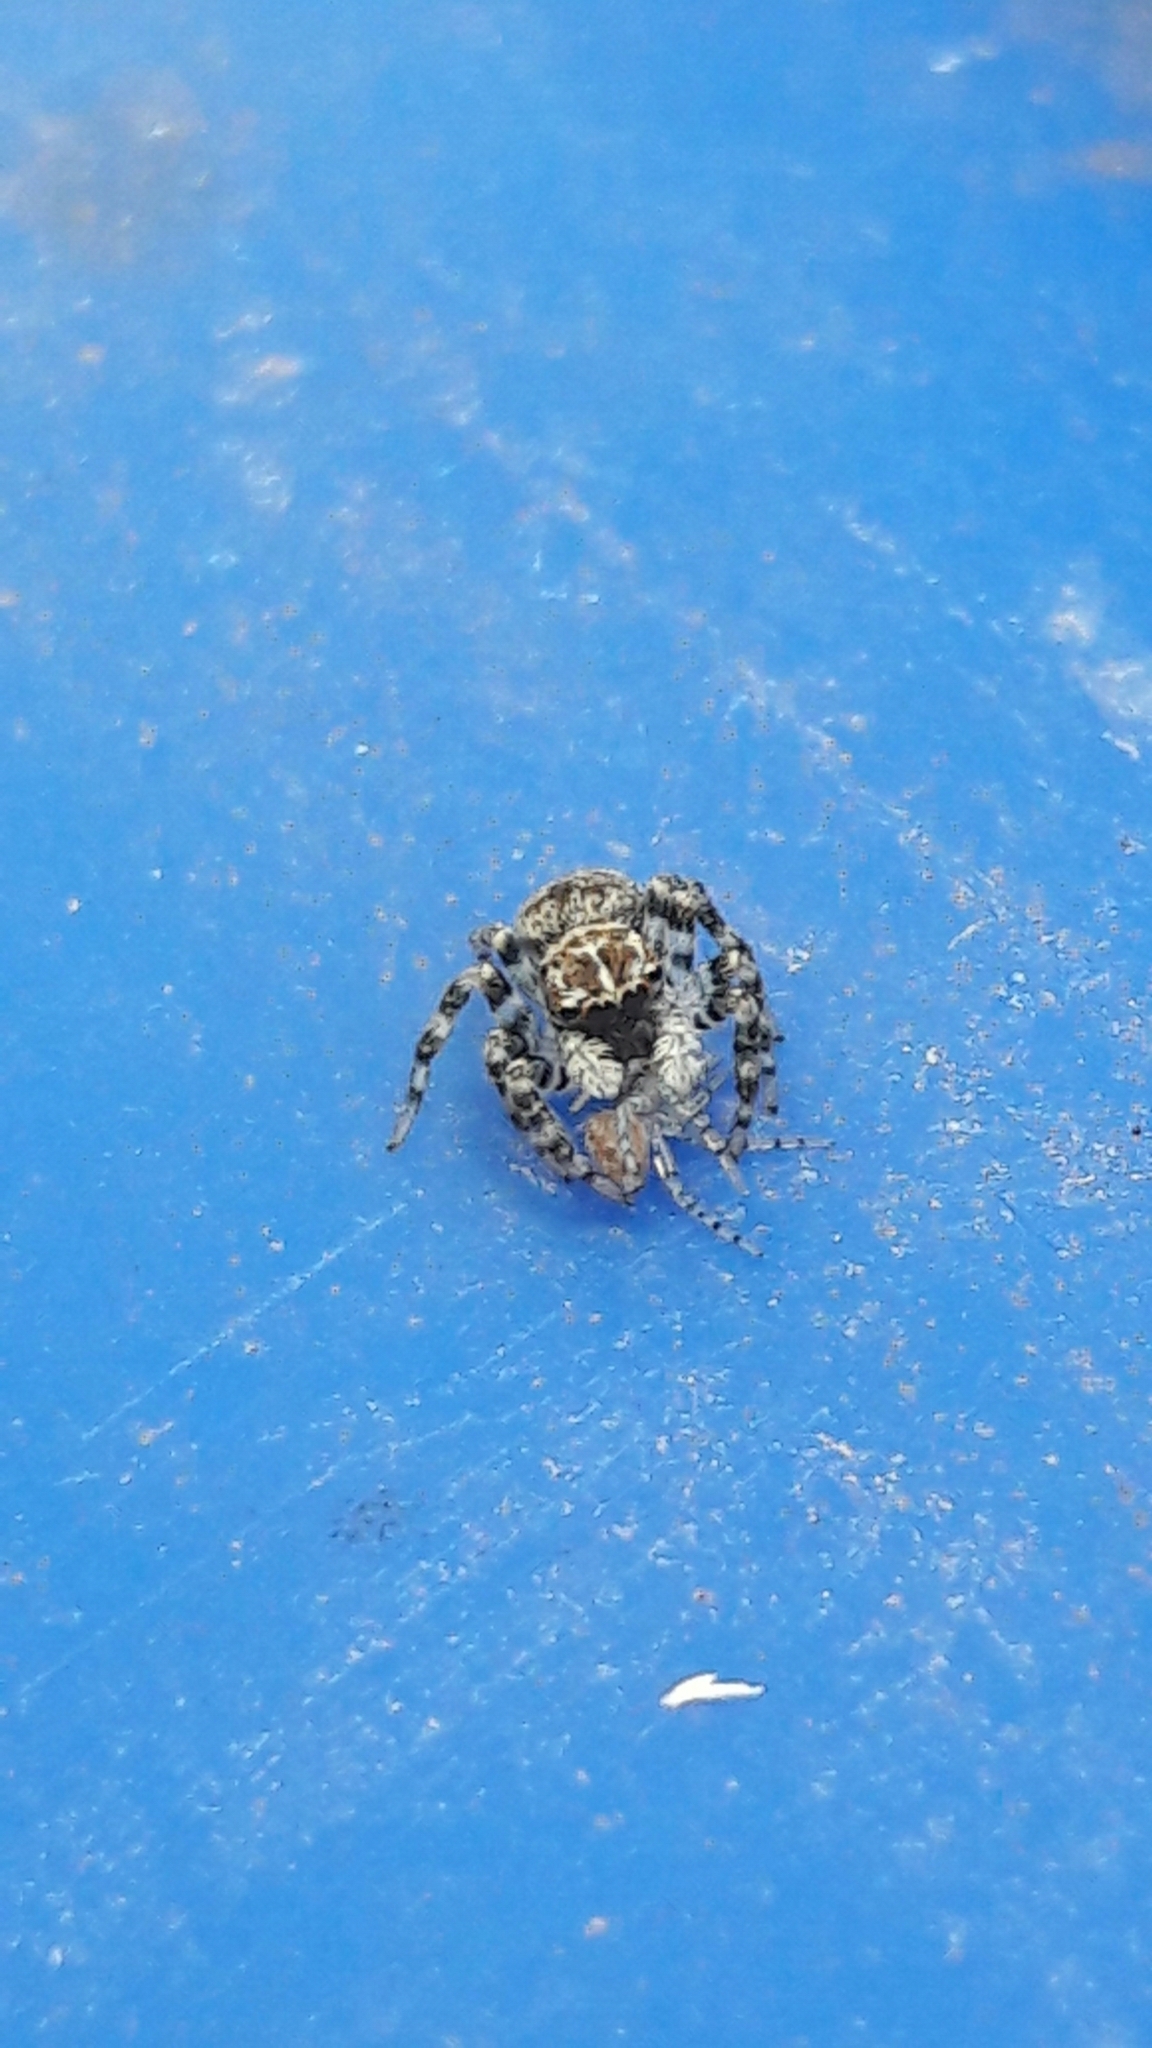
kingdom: Animalia
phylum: Arthropoda
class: Arachnida
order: Araneae
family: Salticidae
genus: Sumampattus
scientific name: Sumampattus quinqueradiatus
